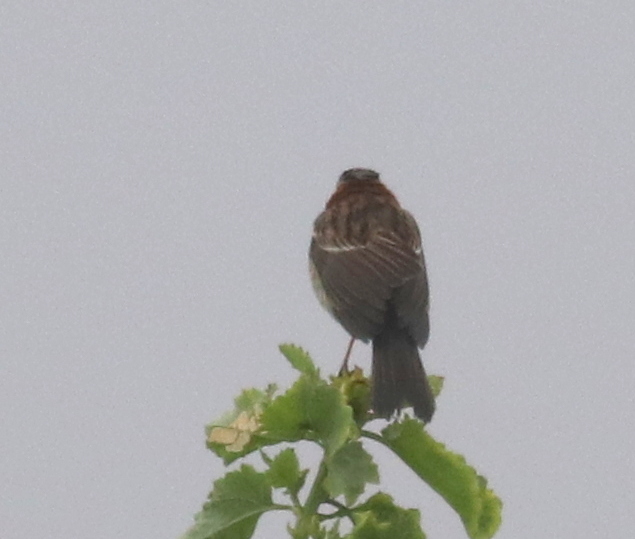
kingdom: Animalia
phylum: Chordata
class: Aves
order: Passeriformes
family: Passerellidae
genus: Zonotrichia
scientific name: Zonotrichia capensis
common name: Rufous-collared sparrow
